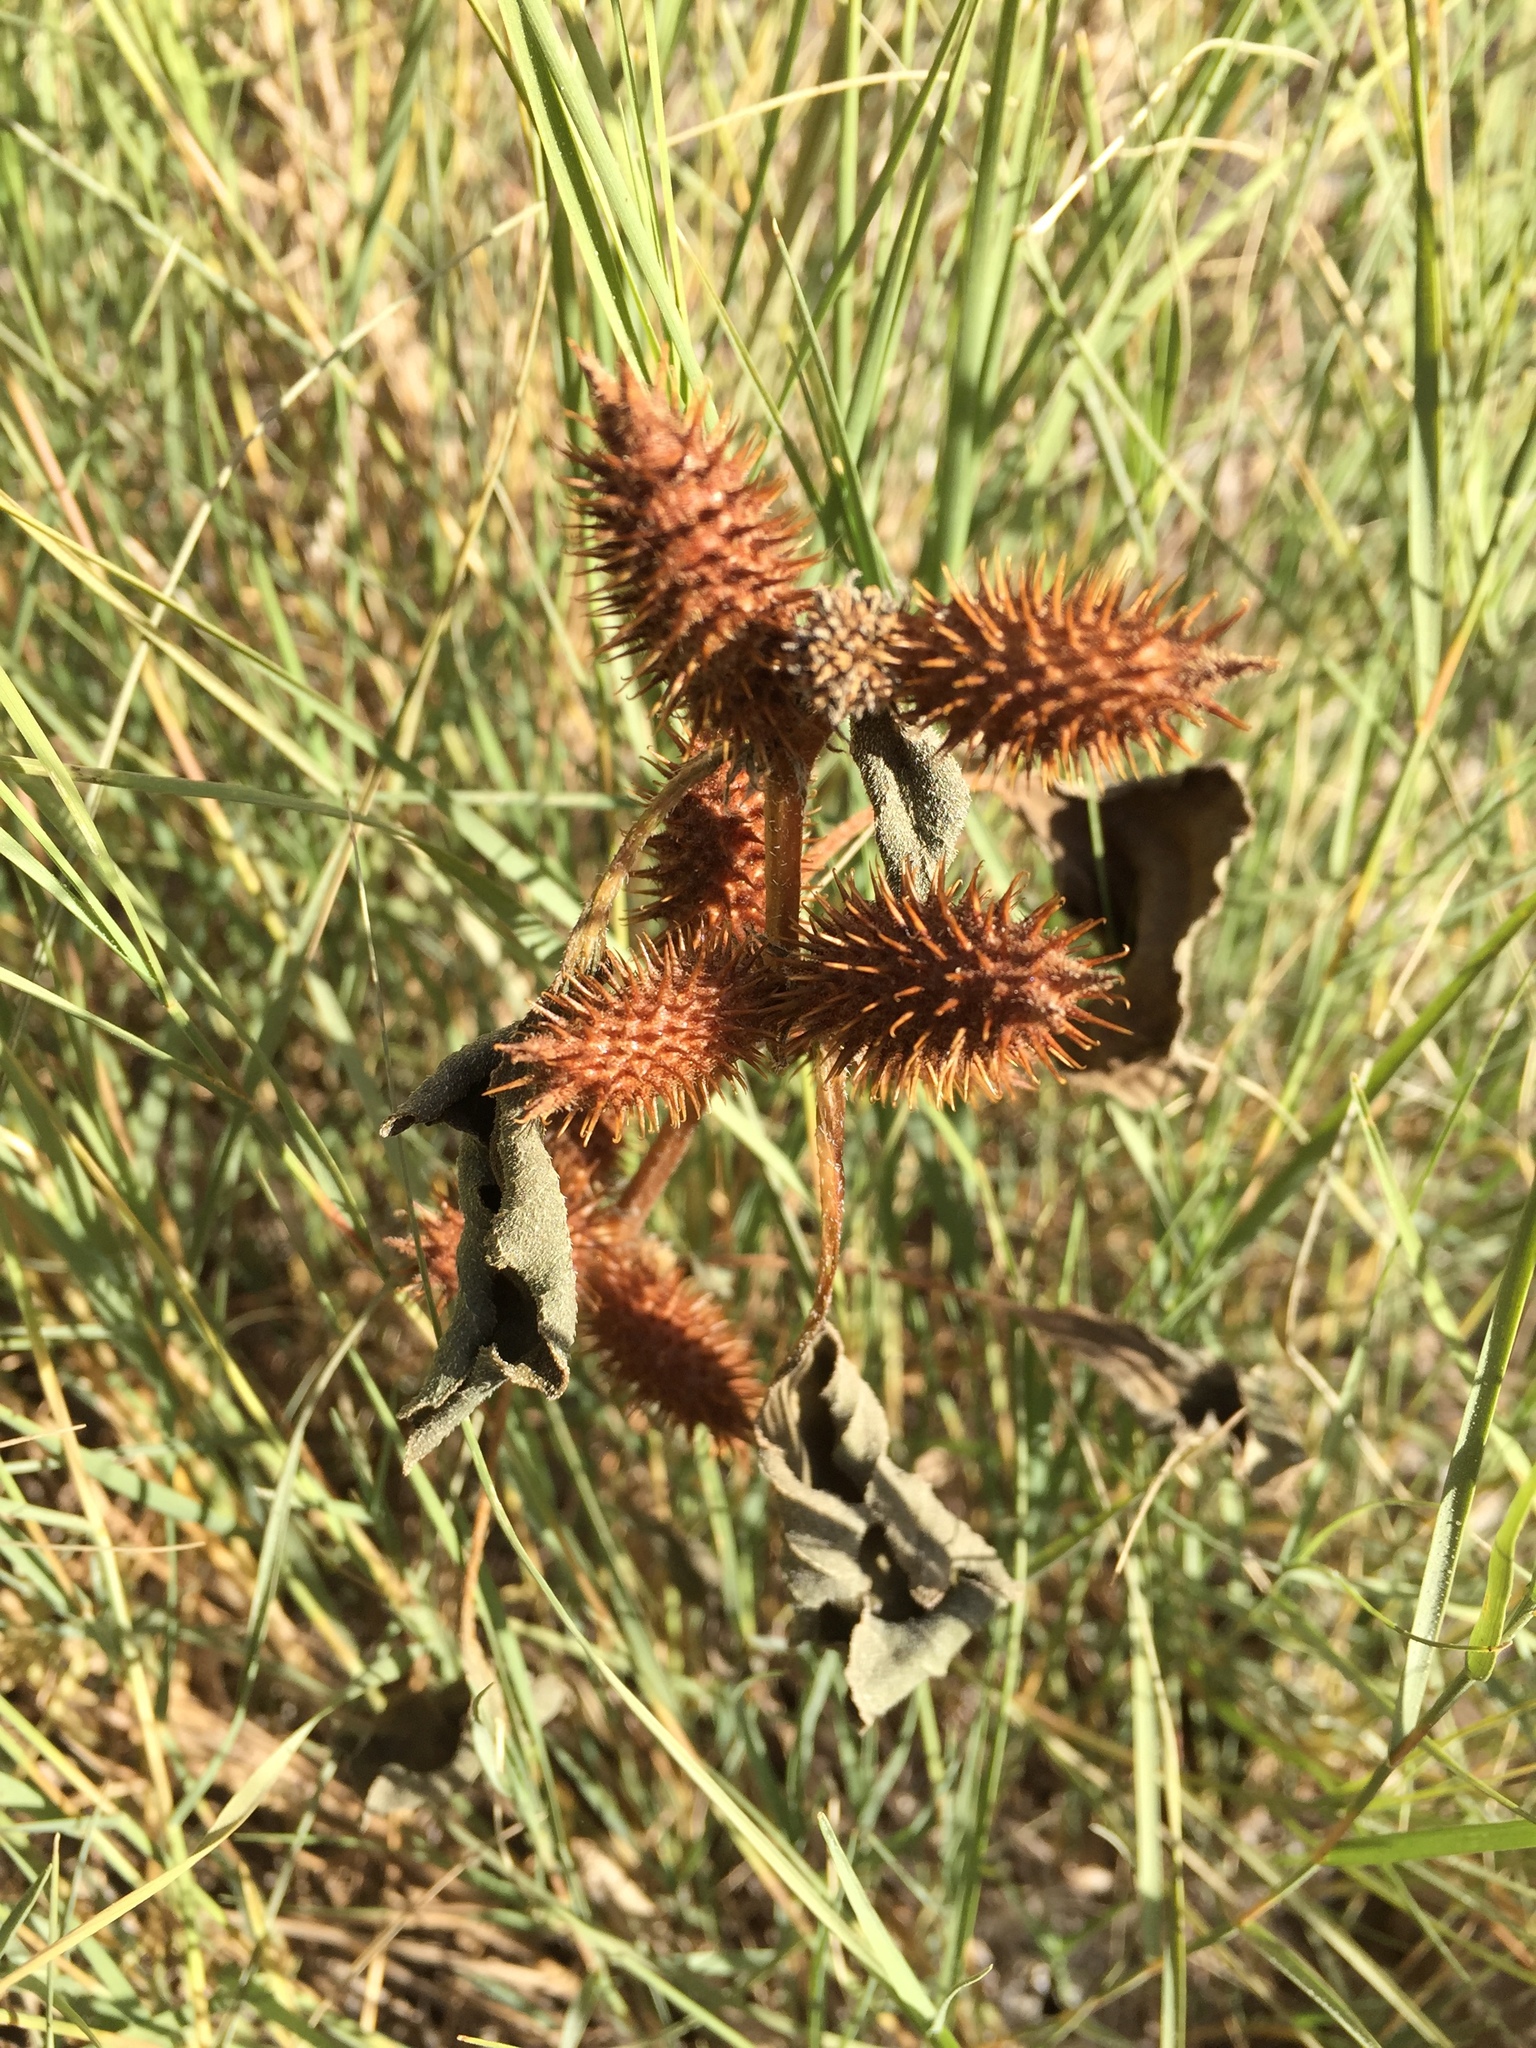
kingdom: Plantae
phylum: Tracheophyta
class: Magnoliopsida
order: Asterales
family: Asteraceae
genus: Xanthium
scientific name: Xanthium strumarium
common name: Rough cocklebur
